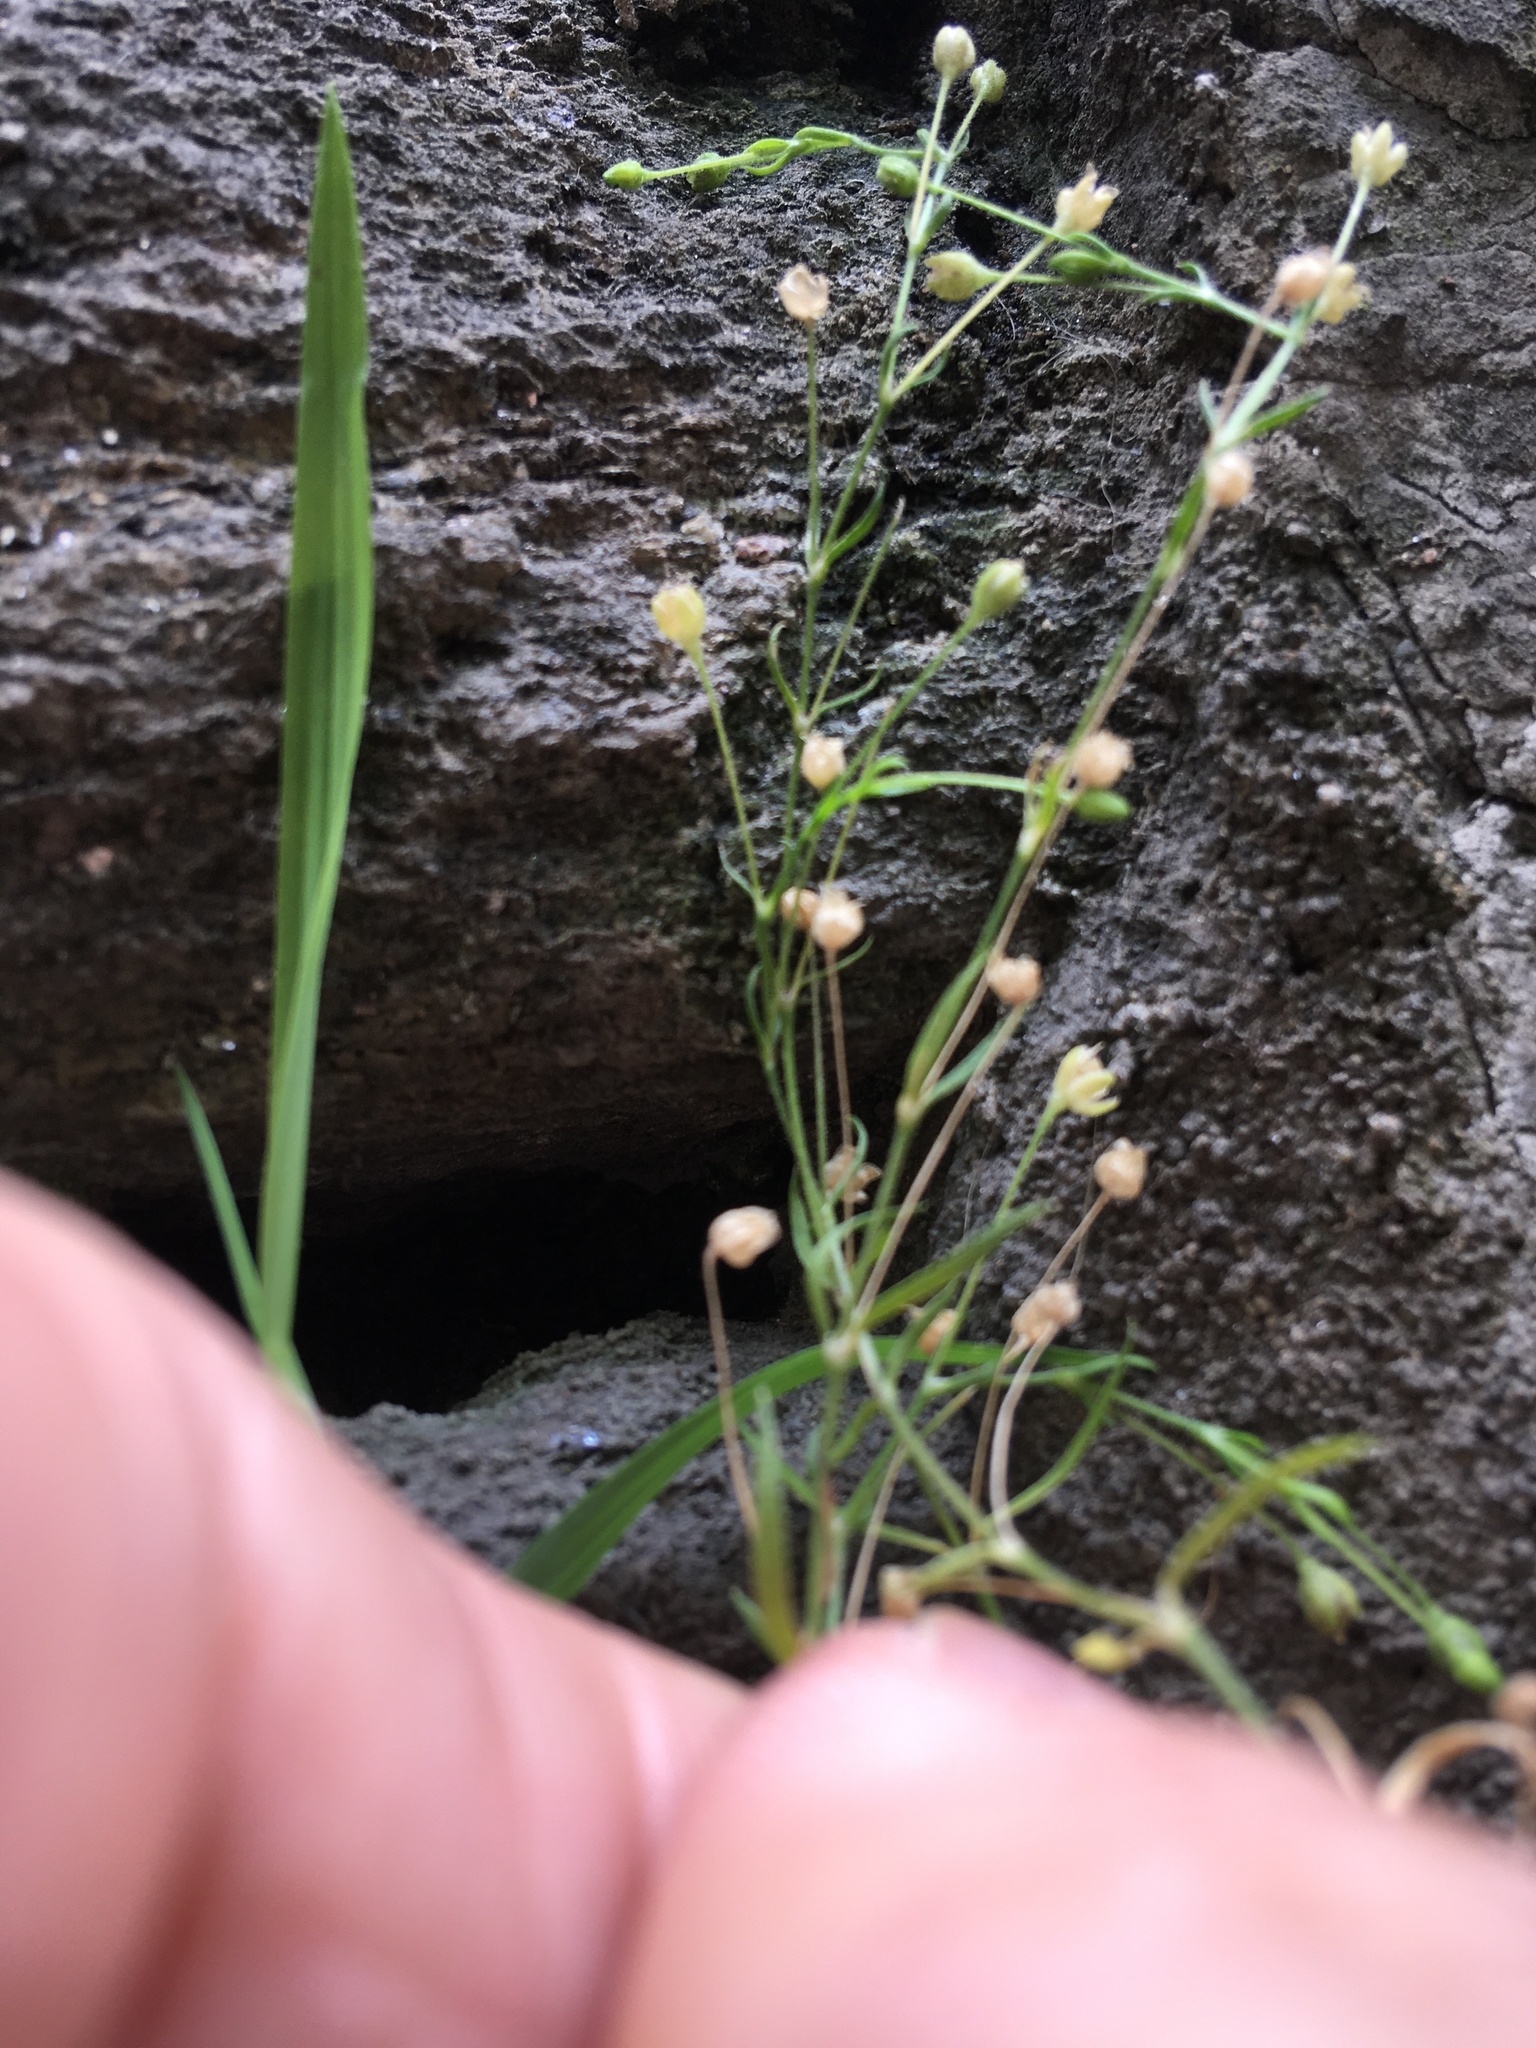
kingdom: Plantae
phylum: Tracheophyta
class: Magnoliopsida
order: Caryophyllales
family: Caryophyllaceae
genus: Sagina
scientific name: Sagina japonica
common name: Japanese pearlwort
